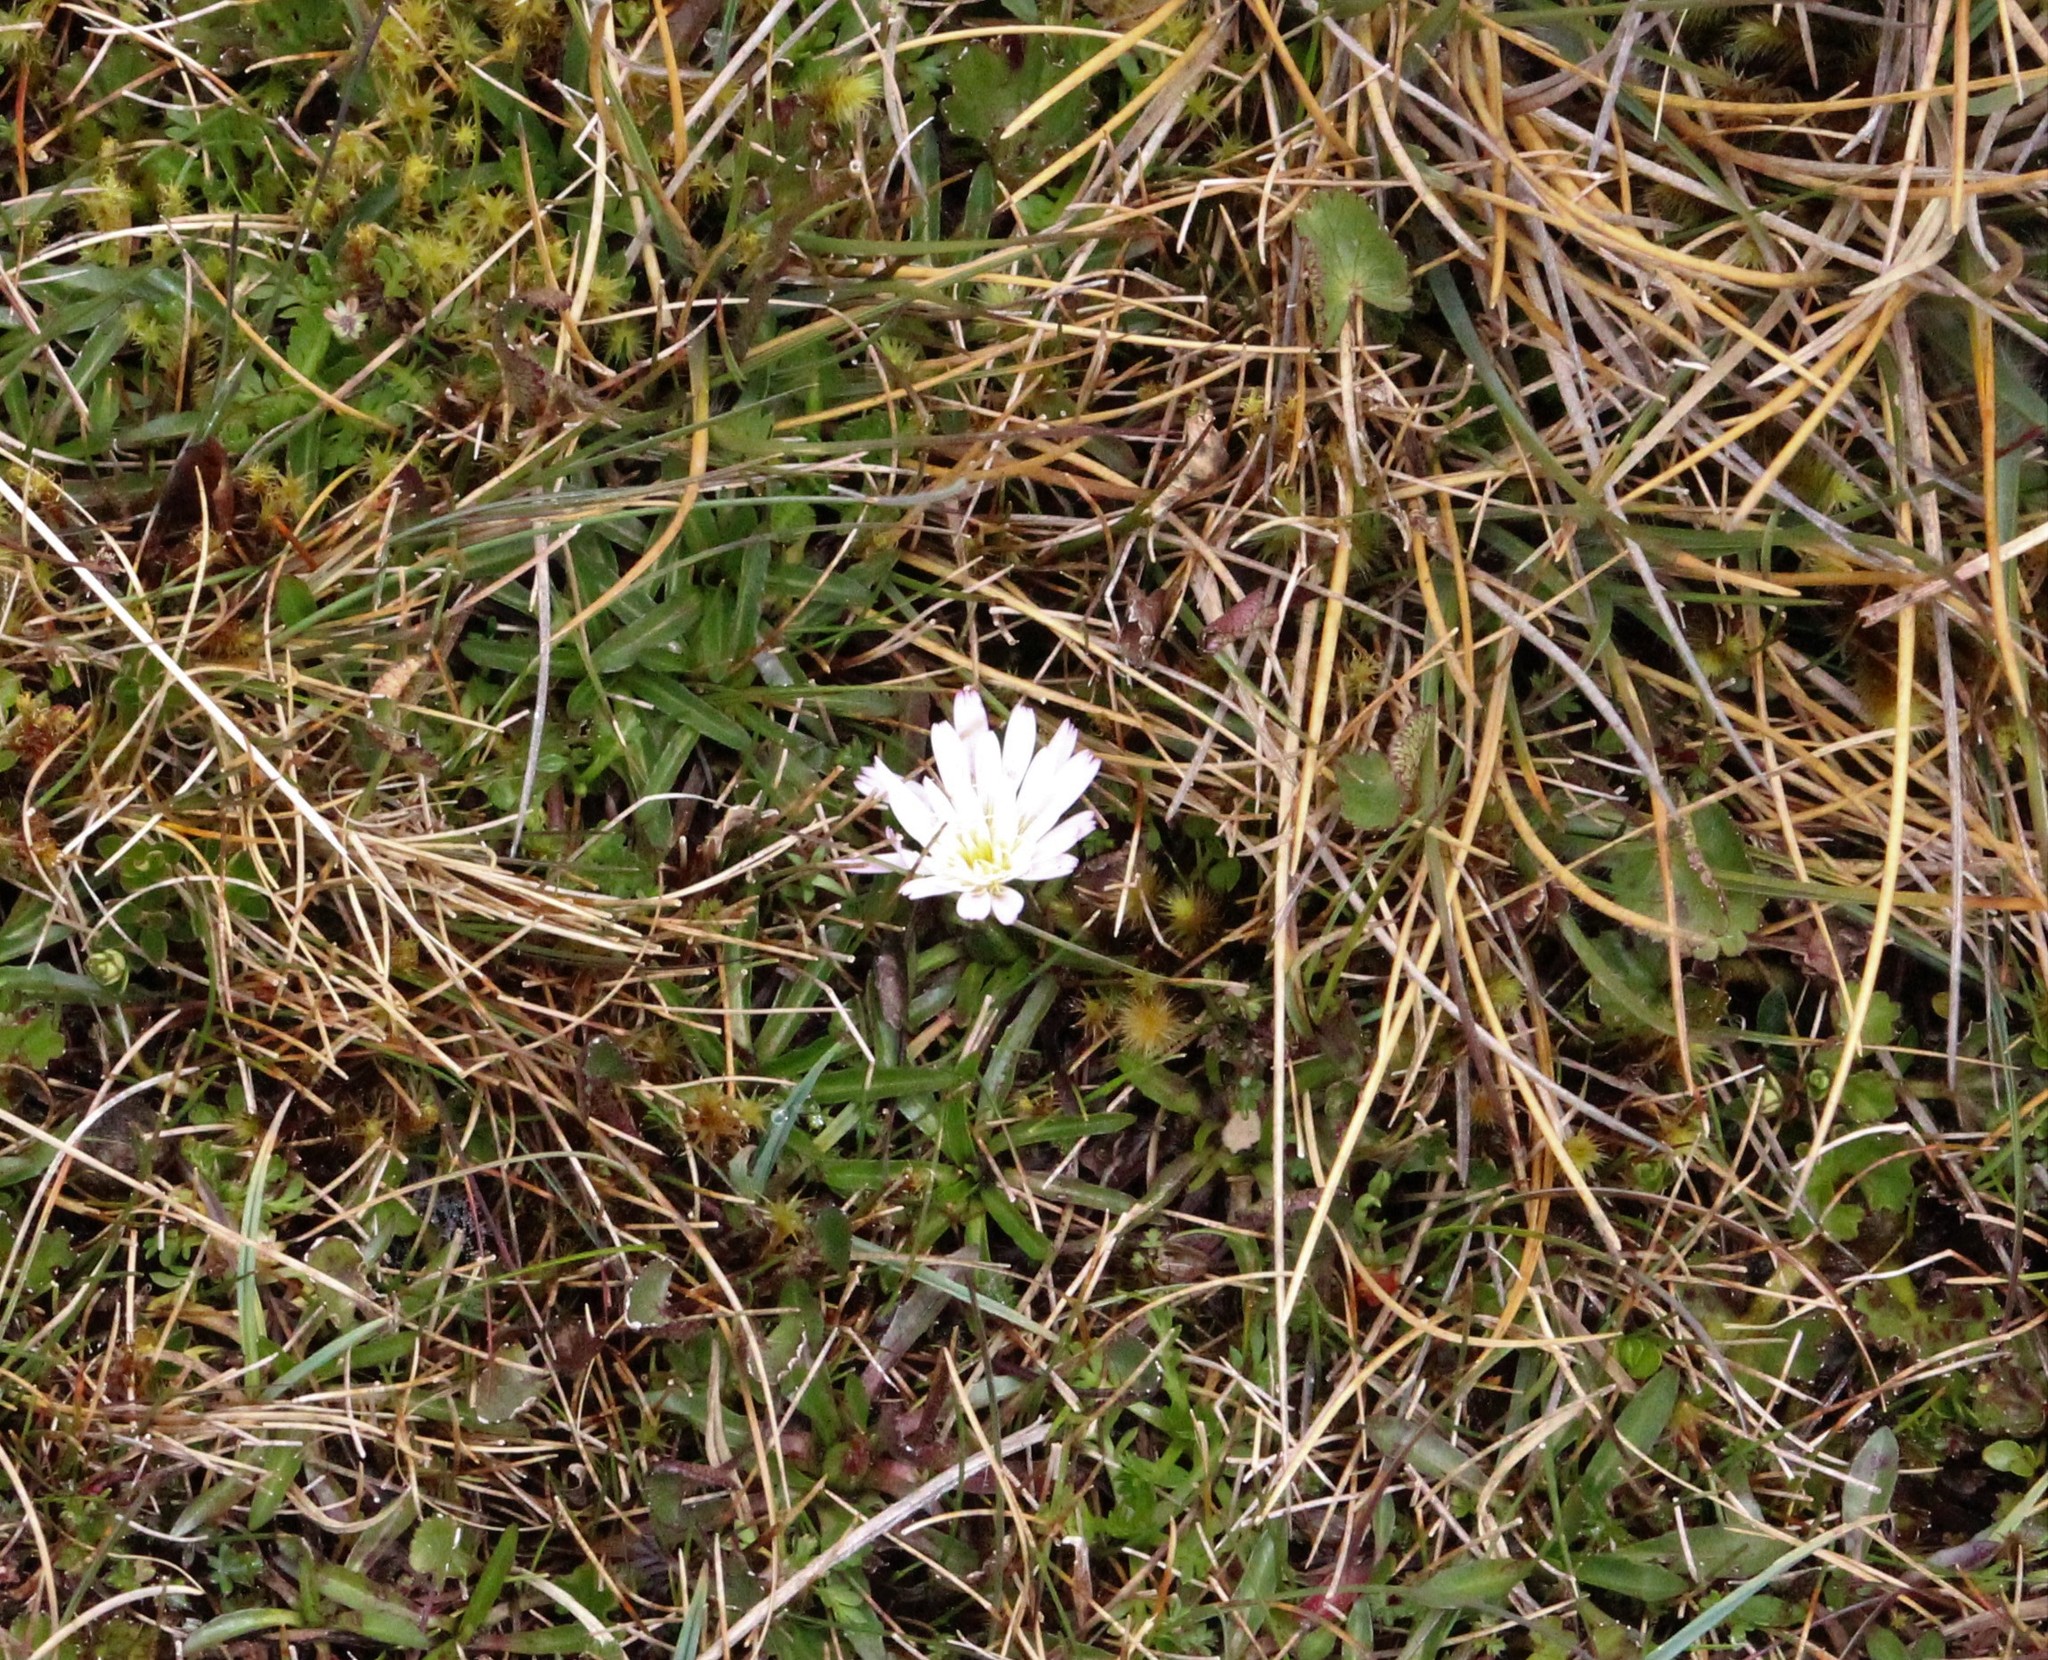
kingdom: Plantae
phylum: Tracheophyta
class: Magnoliopsida
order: Asterales
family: Asteraceae
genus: Hypochaeris
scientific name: Hypochaeris sessiliflora
